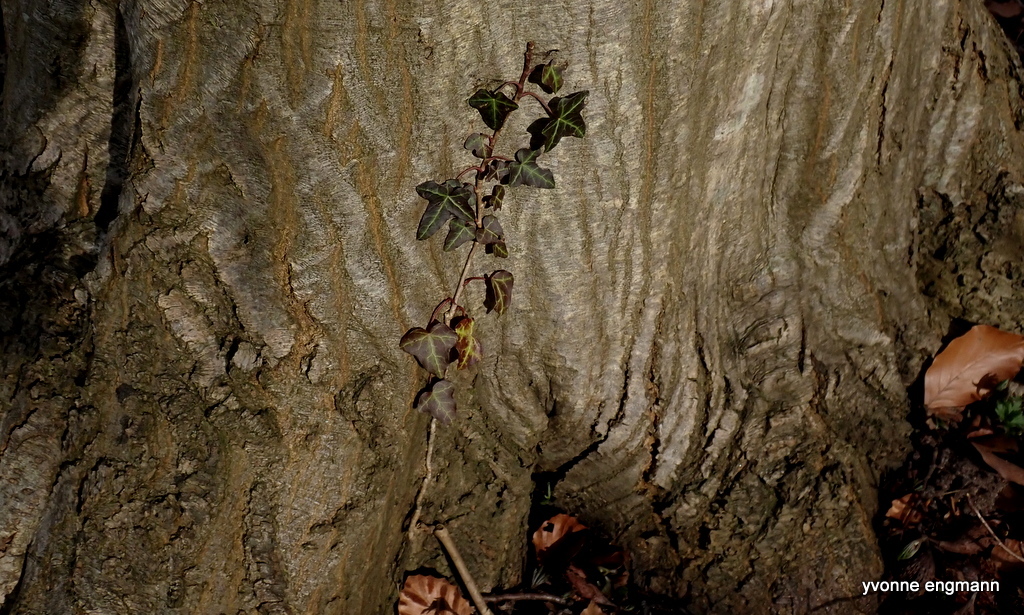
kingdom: Plantae
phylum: Tracheophyta
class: Magnoliopsida
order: Apiales
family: Araliaceae
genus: Hedera
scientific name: Hedera helix
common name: Ivy
